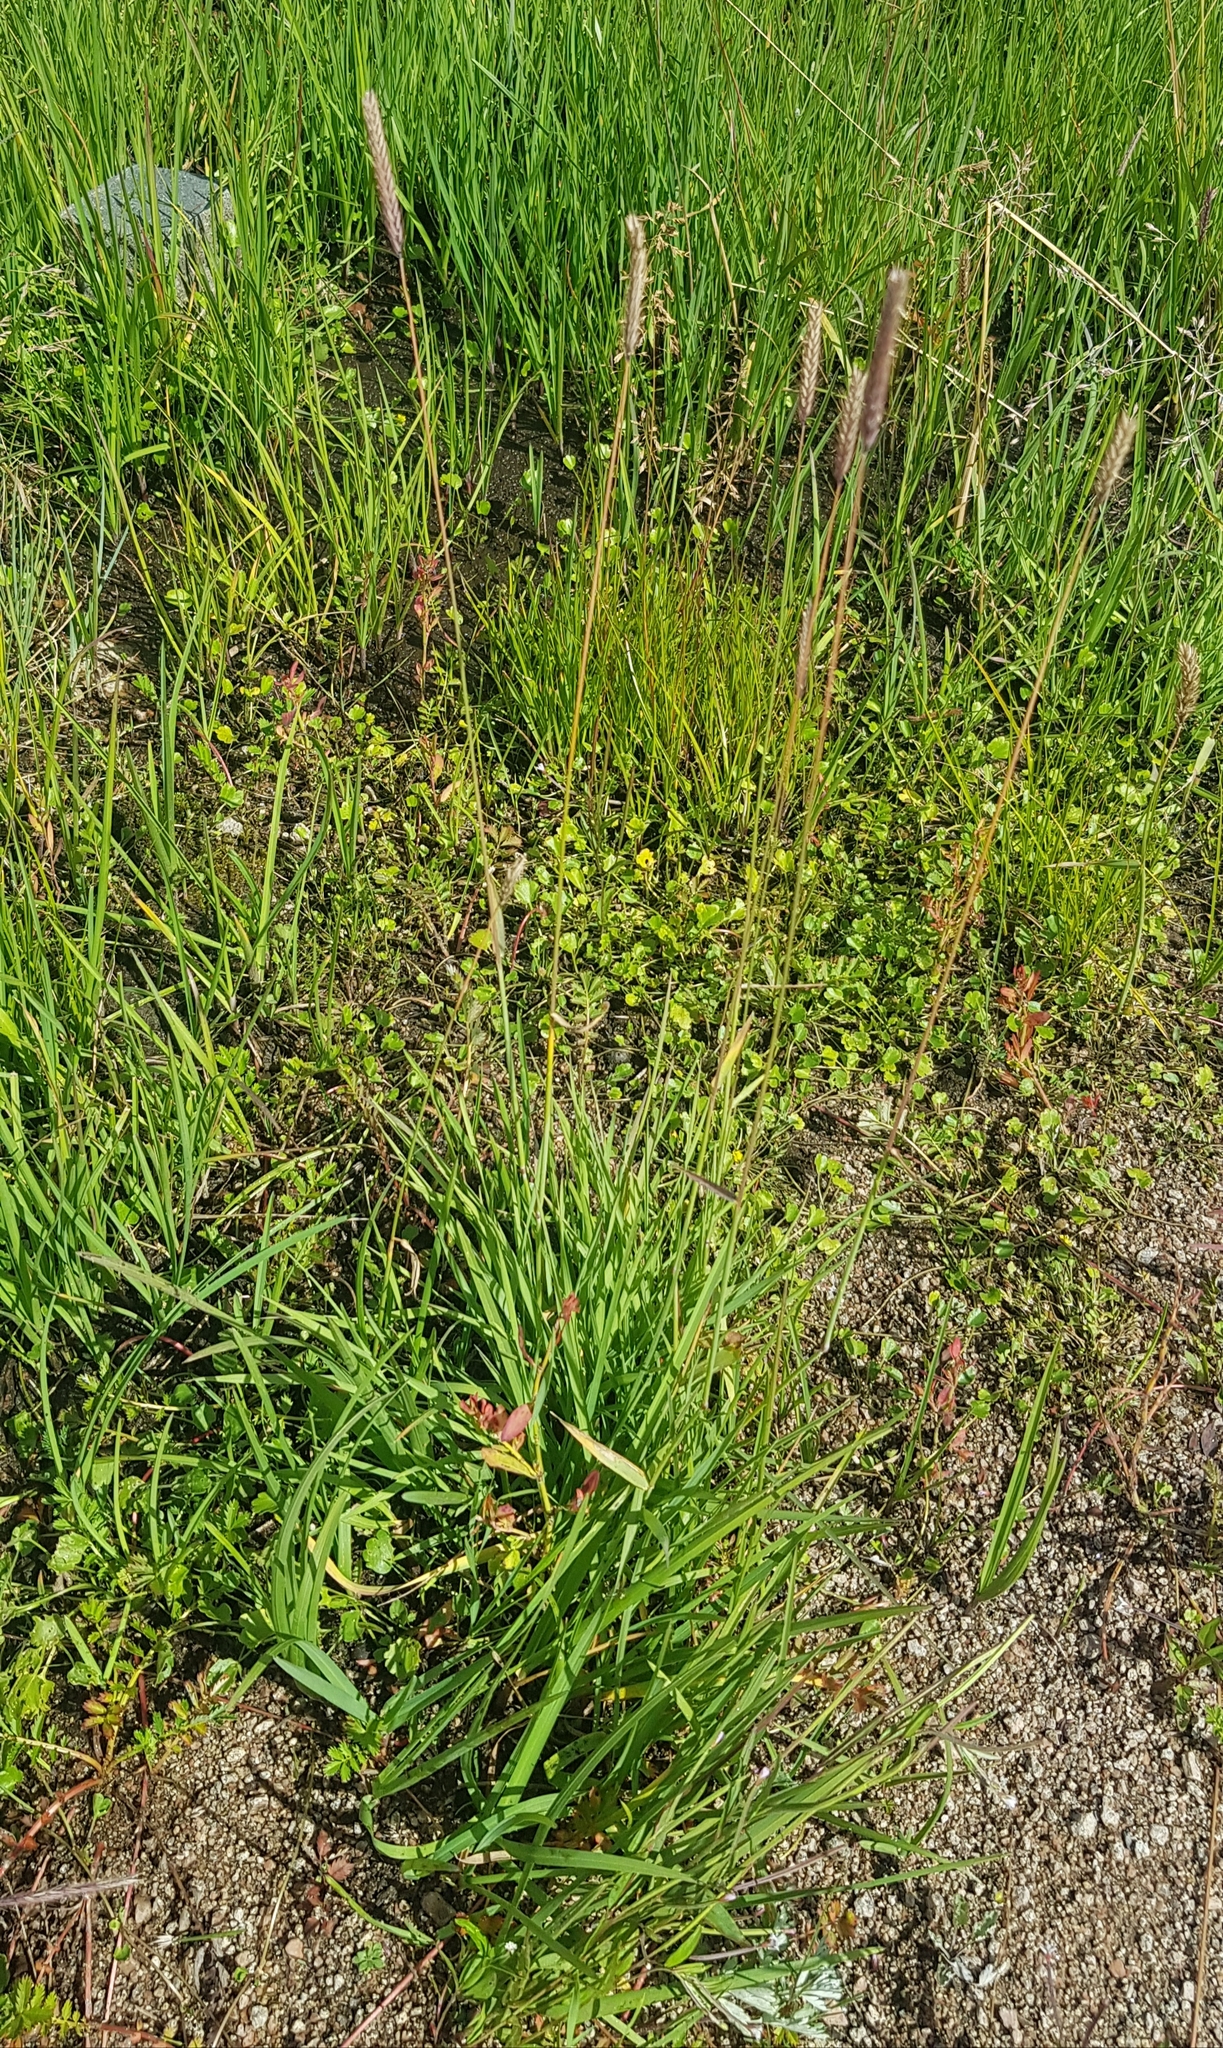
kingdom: Plantae
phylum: Tracheophyta
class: Liliopsida
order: Poales
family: Poaceae
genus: Elymus
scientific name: Elymus repens
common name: Quackgrass
